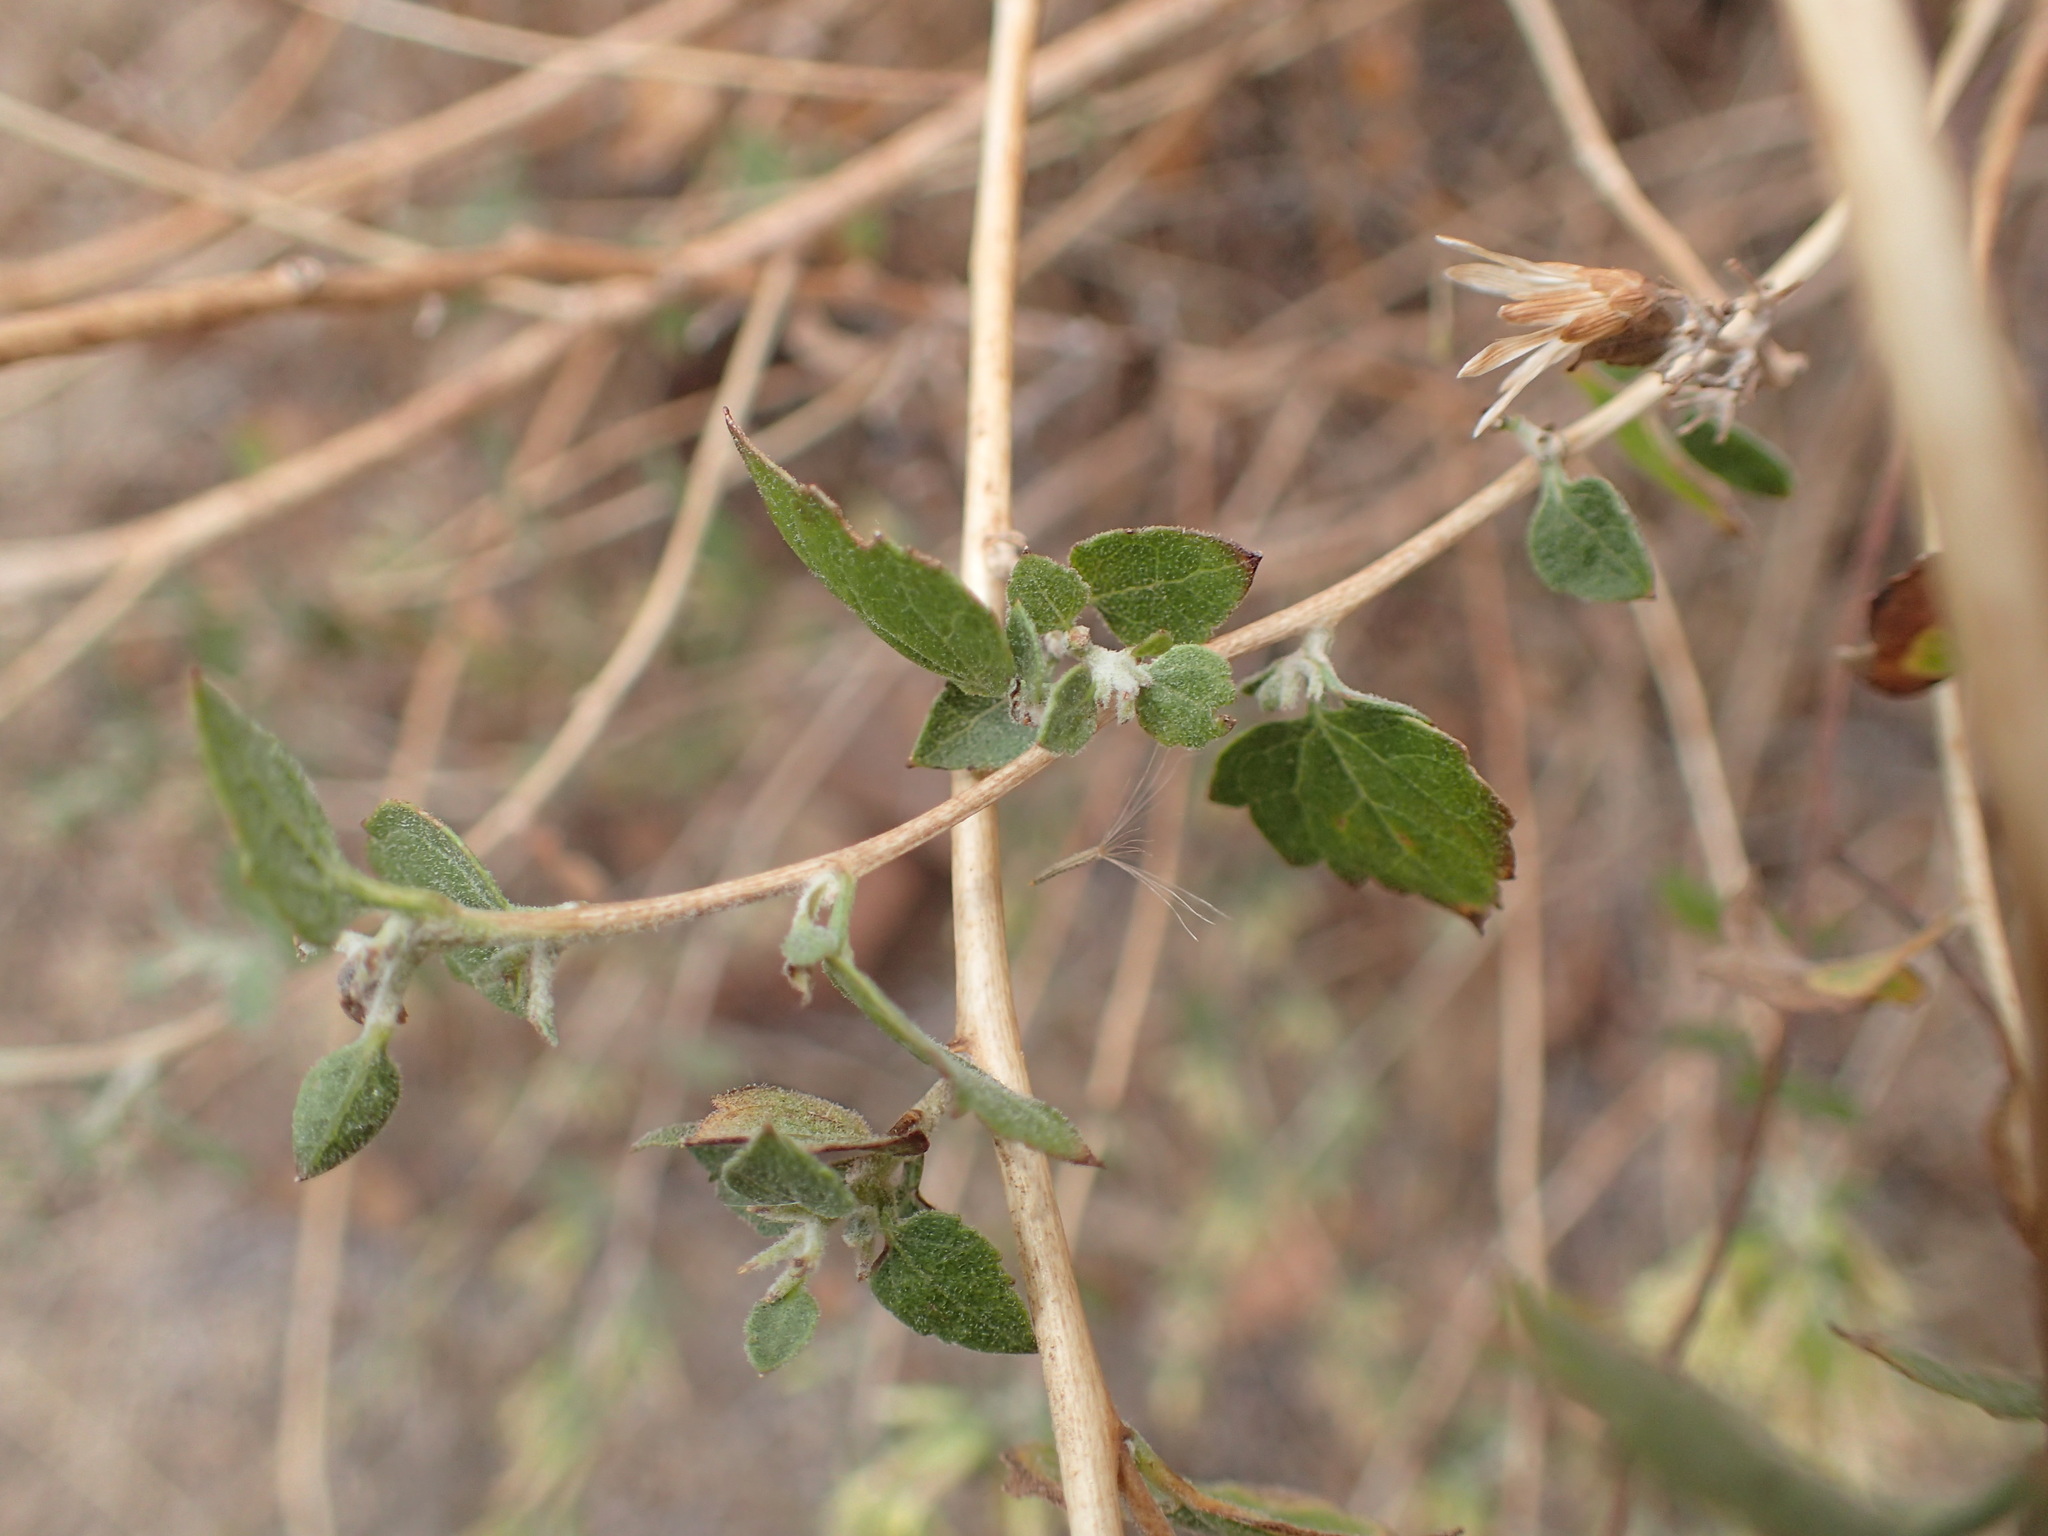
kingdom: Plantae
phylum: Tracheophyta
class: Magnoliopsida
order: Asterales
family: Asteraceae
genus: Brickellia
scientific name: Brickellia californica
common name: California brickellbush
